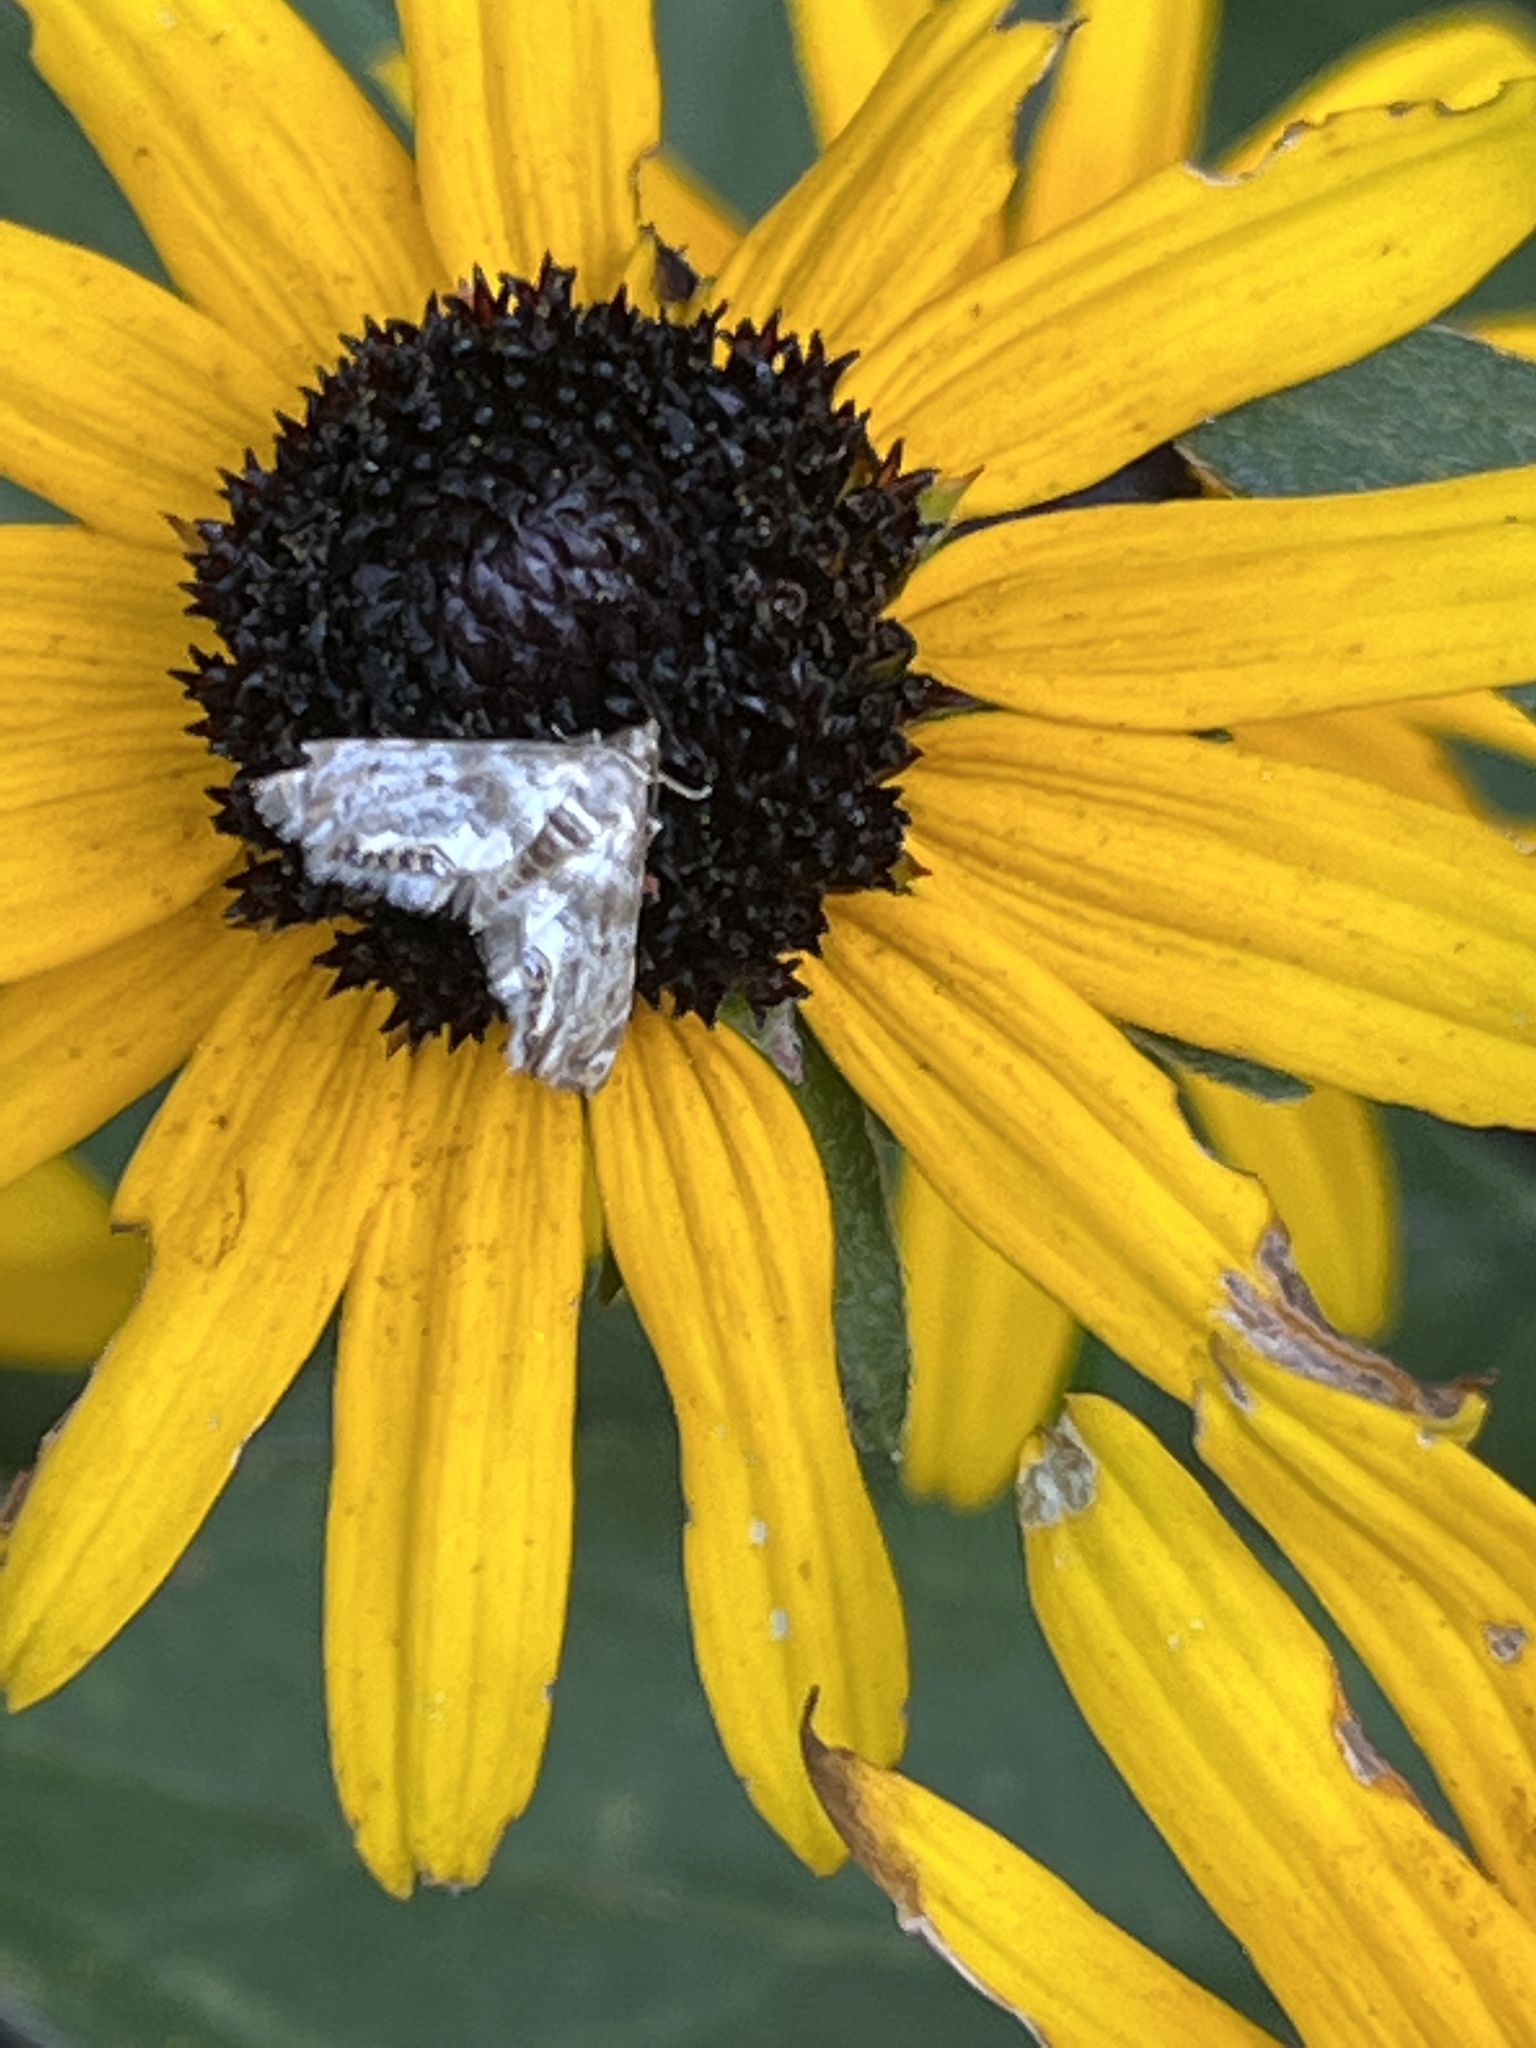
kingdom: Animalia
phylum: Arthropoda
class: Insecta
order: Lepidoptera
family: Crambidae
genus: Petrophila
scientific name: Petrophila fulicalis
